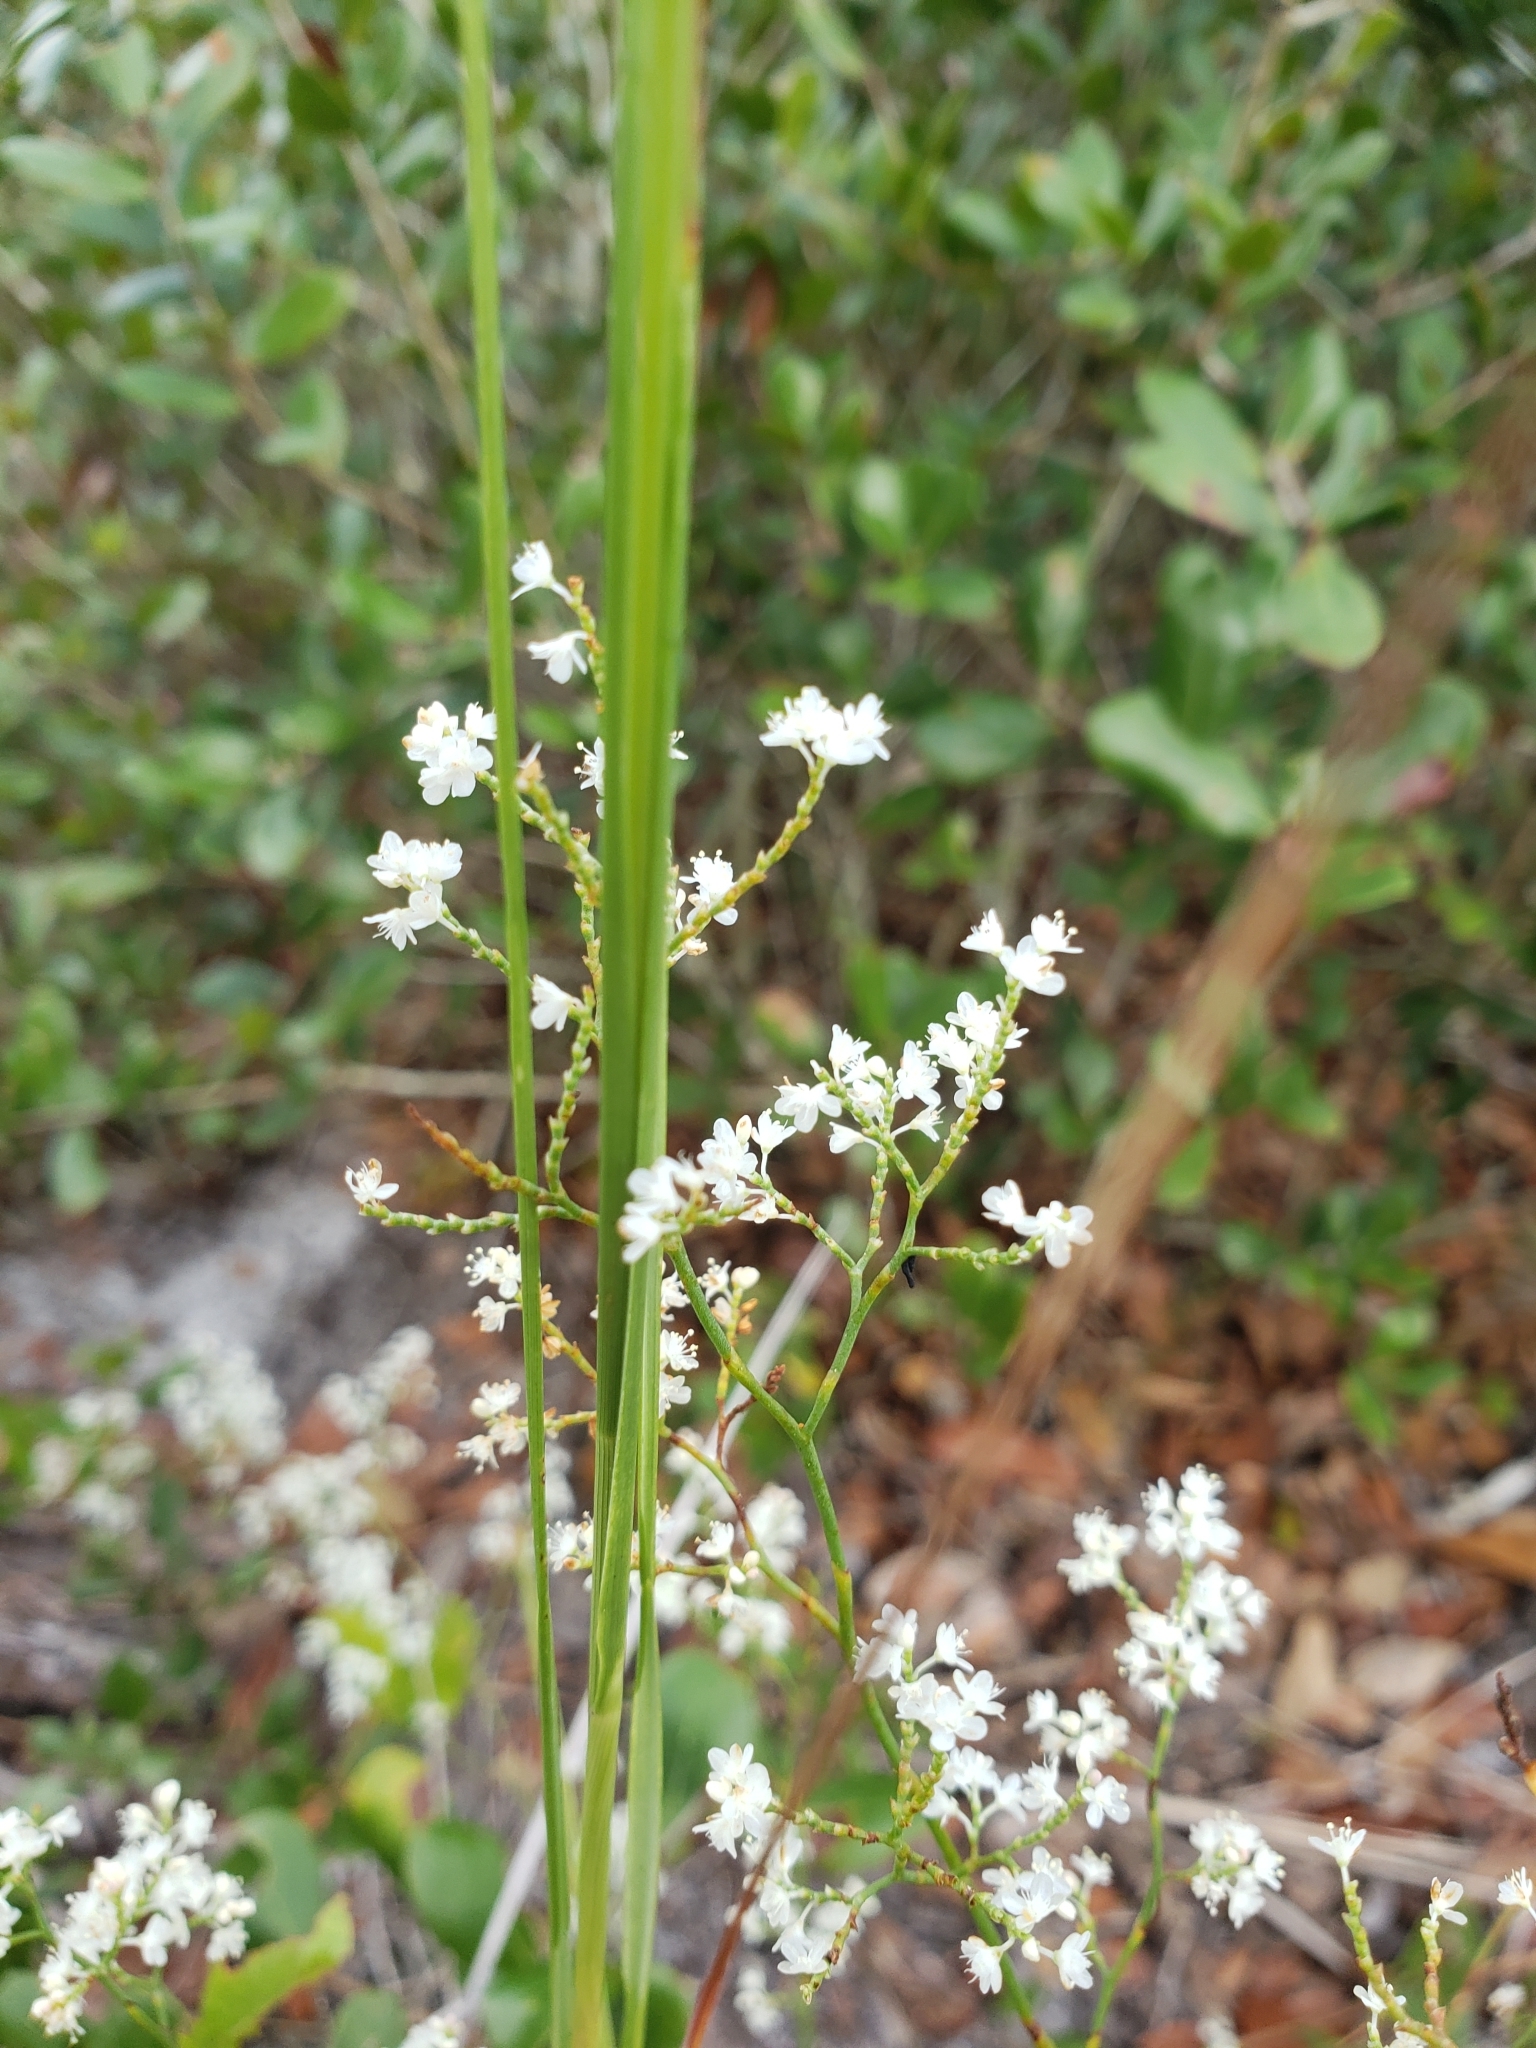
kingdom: Plantae
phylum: Tracheophyta
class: Magnoliopsida
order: Caryophyllales
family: Polygonaceae
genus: Polygonella
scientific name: Polygonella polygama
